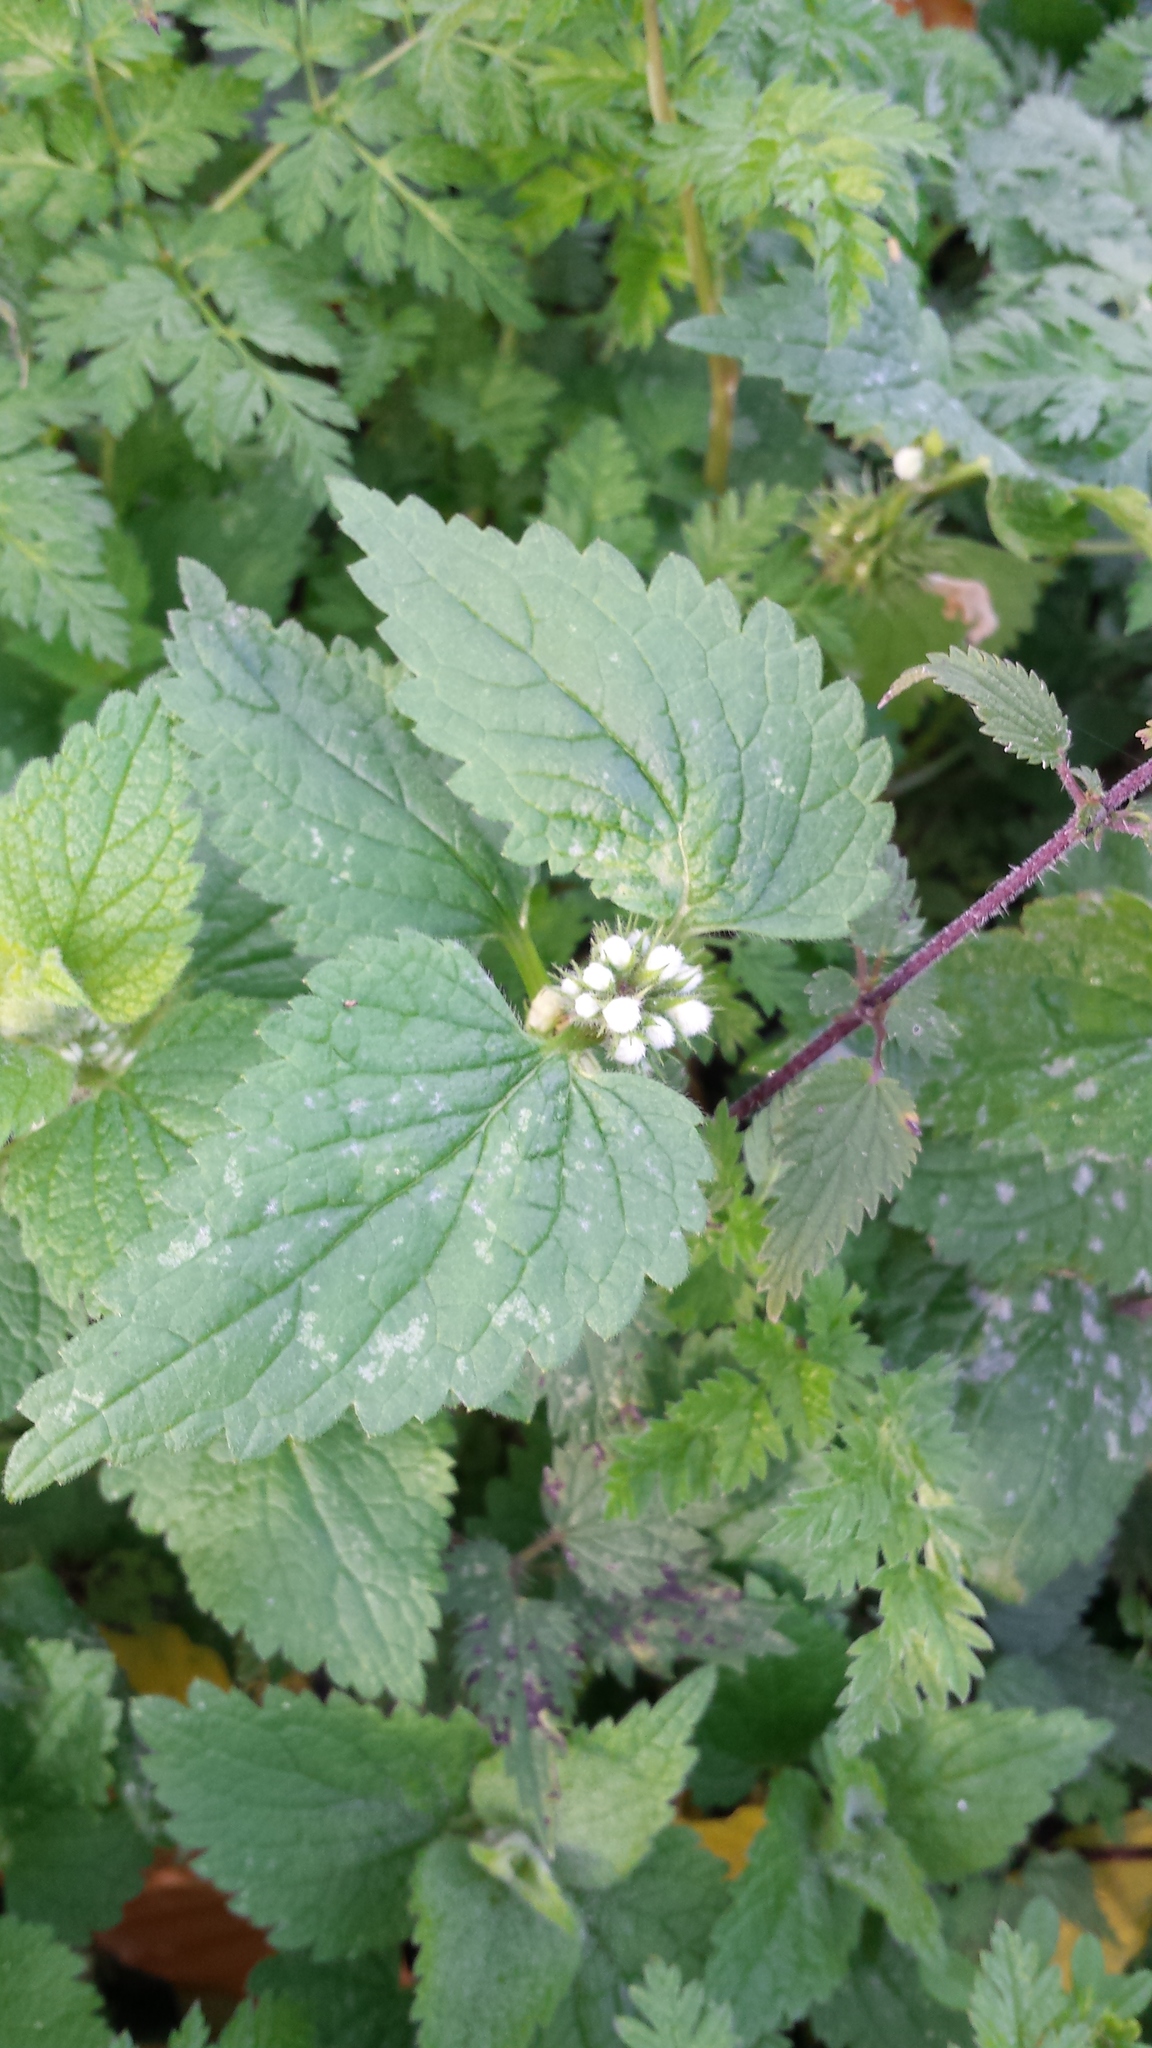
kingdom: Plantae
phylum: Tracheophyta
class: Magnoliopsida
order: Lamiales
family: Lamiaceae
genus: Lamium
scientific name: Lamium album
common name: White dead-nettle
